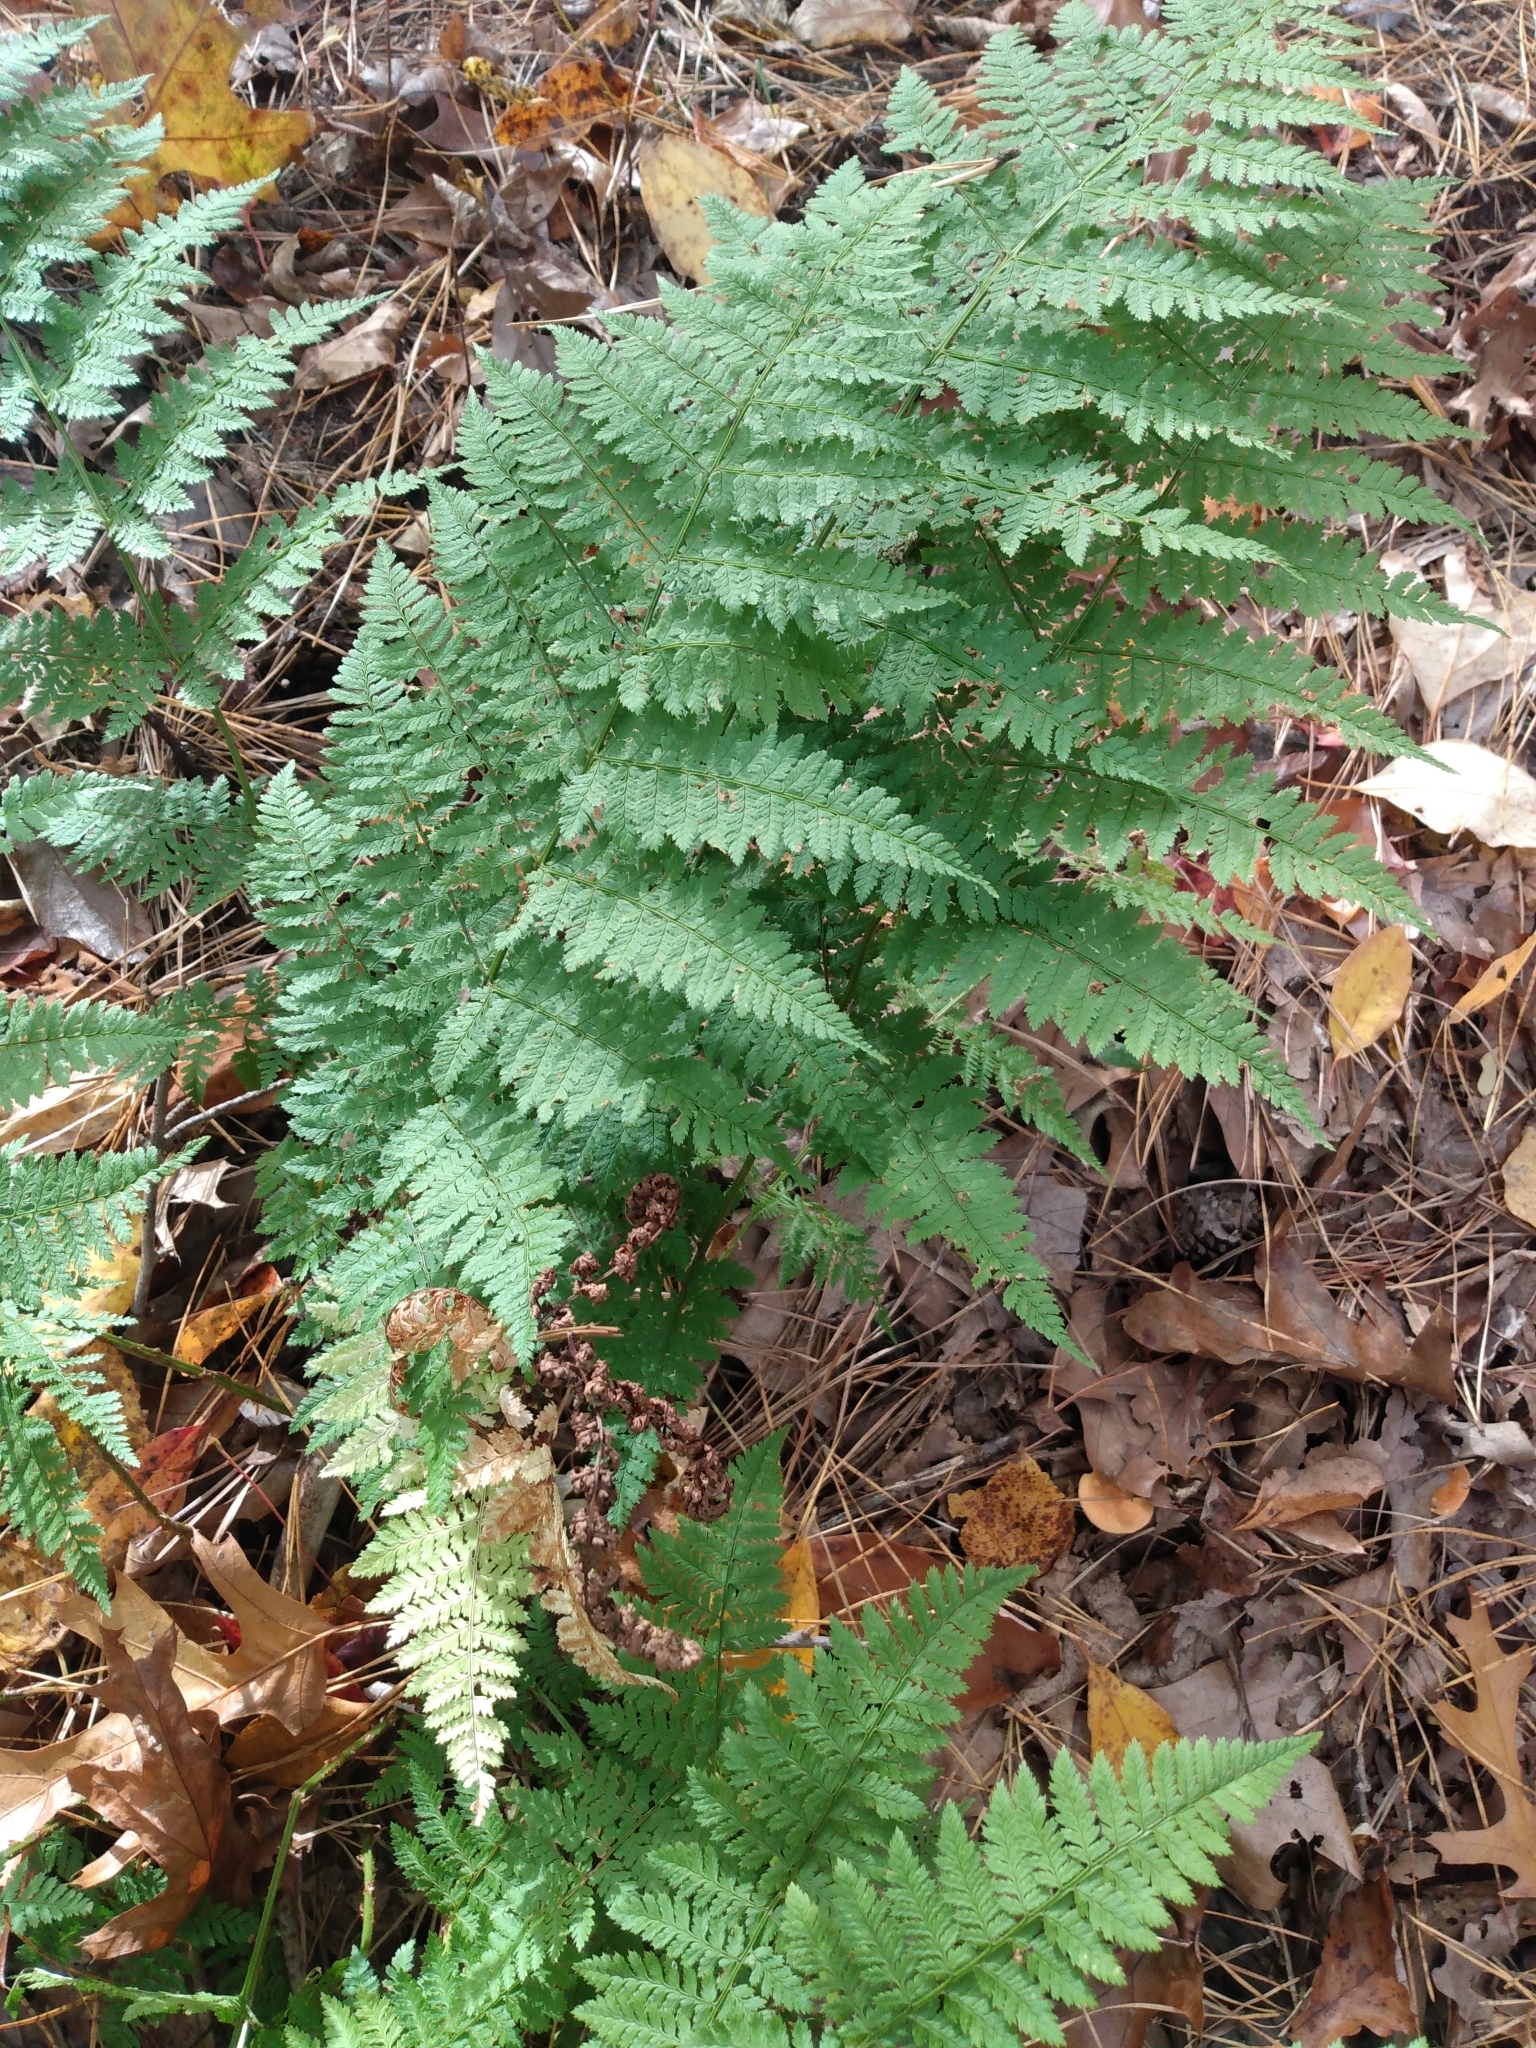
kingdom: Plantae
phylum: Tracheophyta
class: Polypodiopsida
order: Polypodiales
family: Dryopteridaceae
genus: Dryopteris
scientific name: Dryopteris intermedia
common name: Evergreen wood fern
